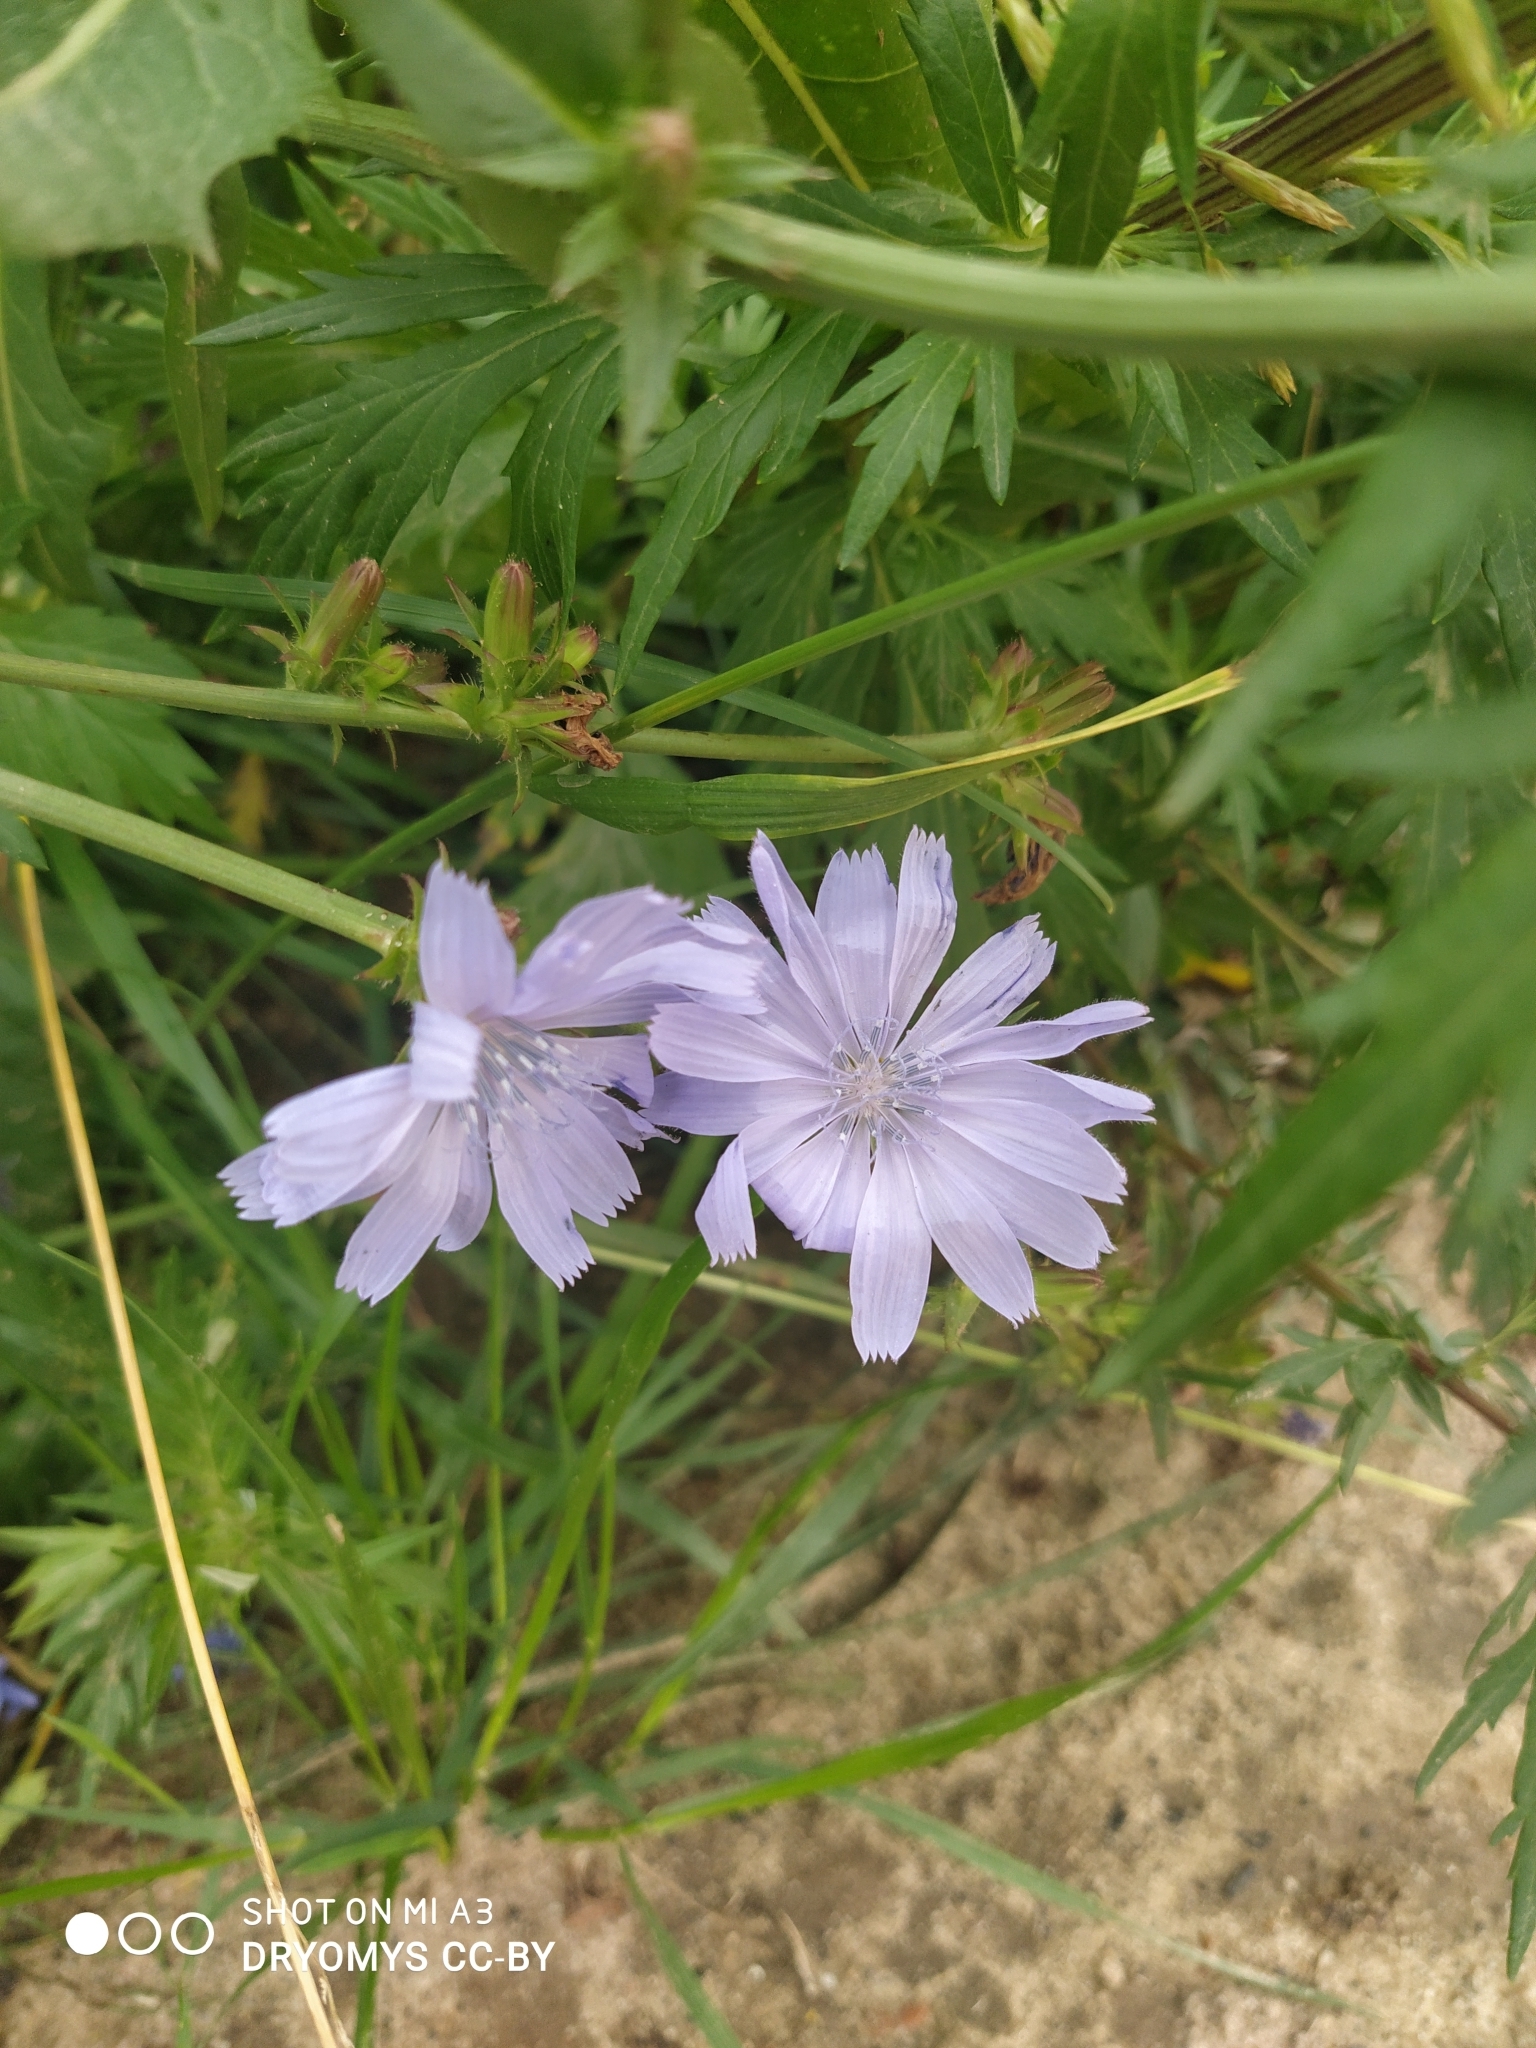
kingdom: Plantae
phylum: Tracheophyta
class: Magnoliopsida
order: Asterales
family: Asteraceae
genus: Cichorium
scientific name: Cichorium intybus
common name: Chicory
